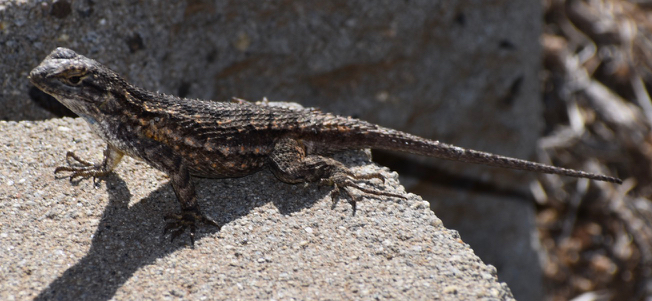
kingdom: Animalia
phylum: Chordata
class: Squamata
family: Phrynosomatidae
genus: Sceloporus
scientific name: Sceloporus occidentalis
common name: Western fence lizard
